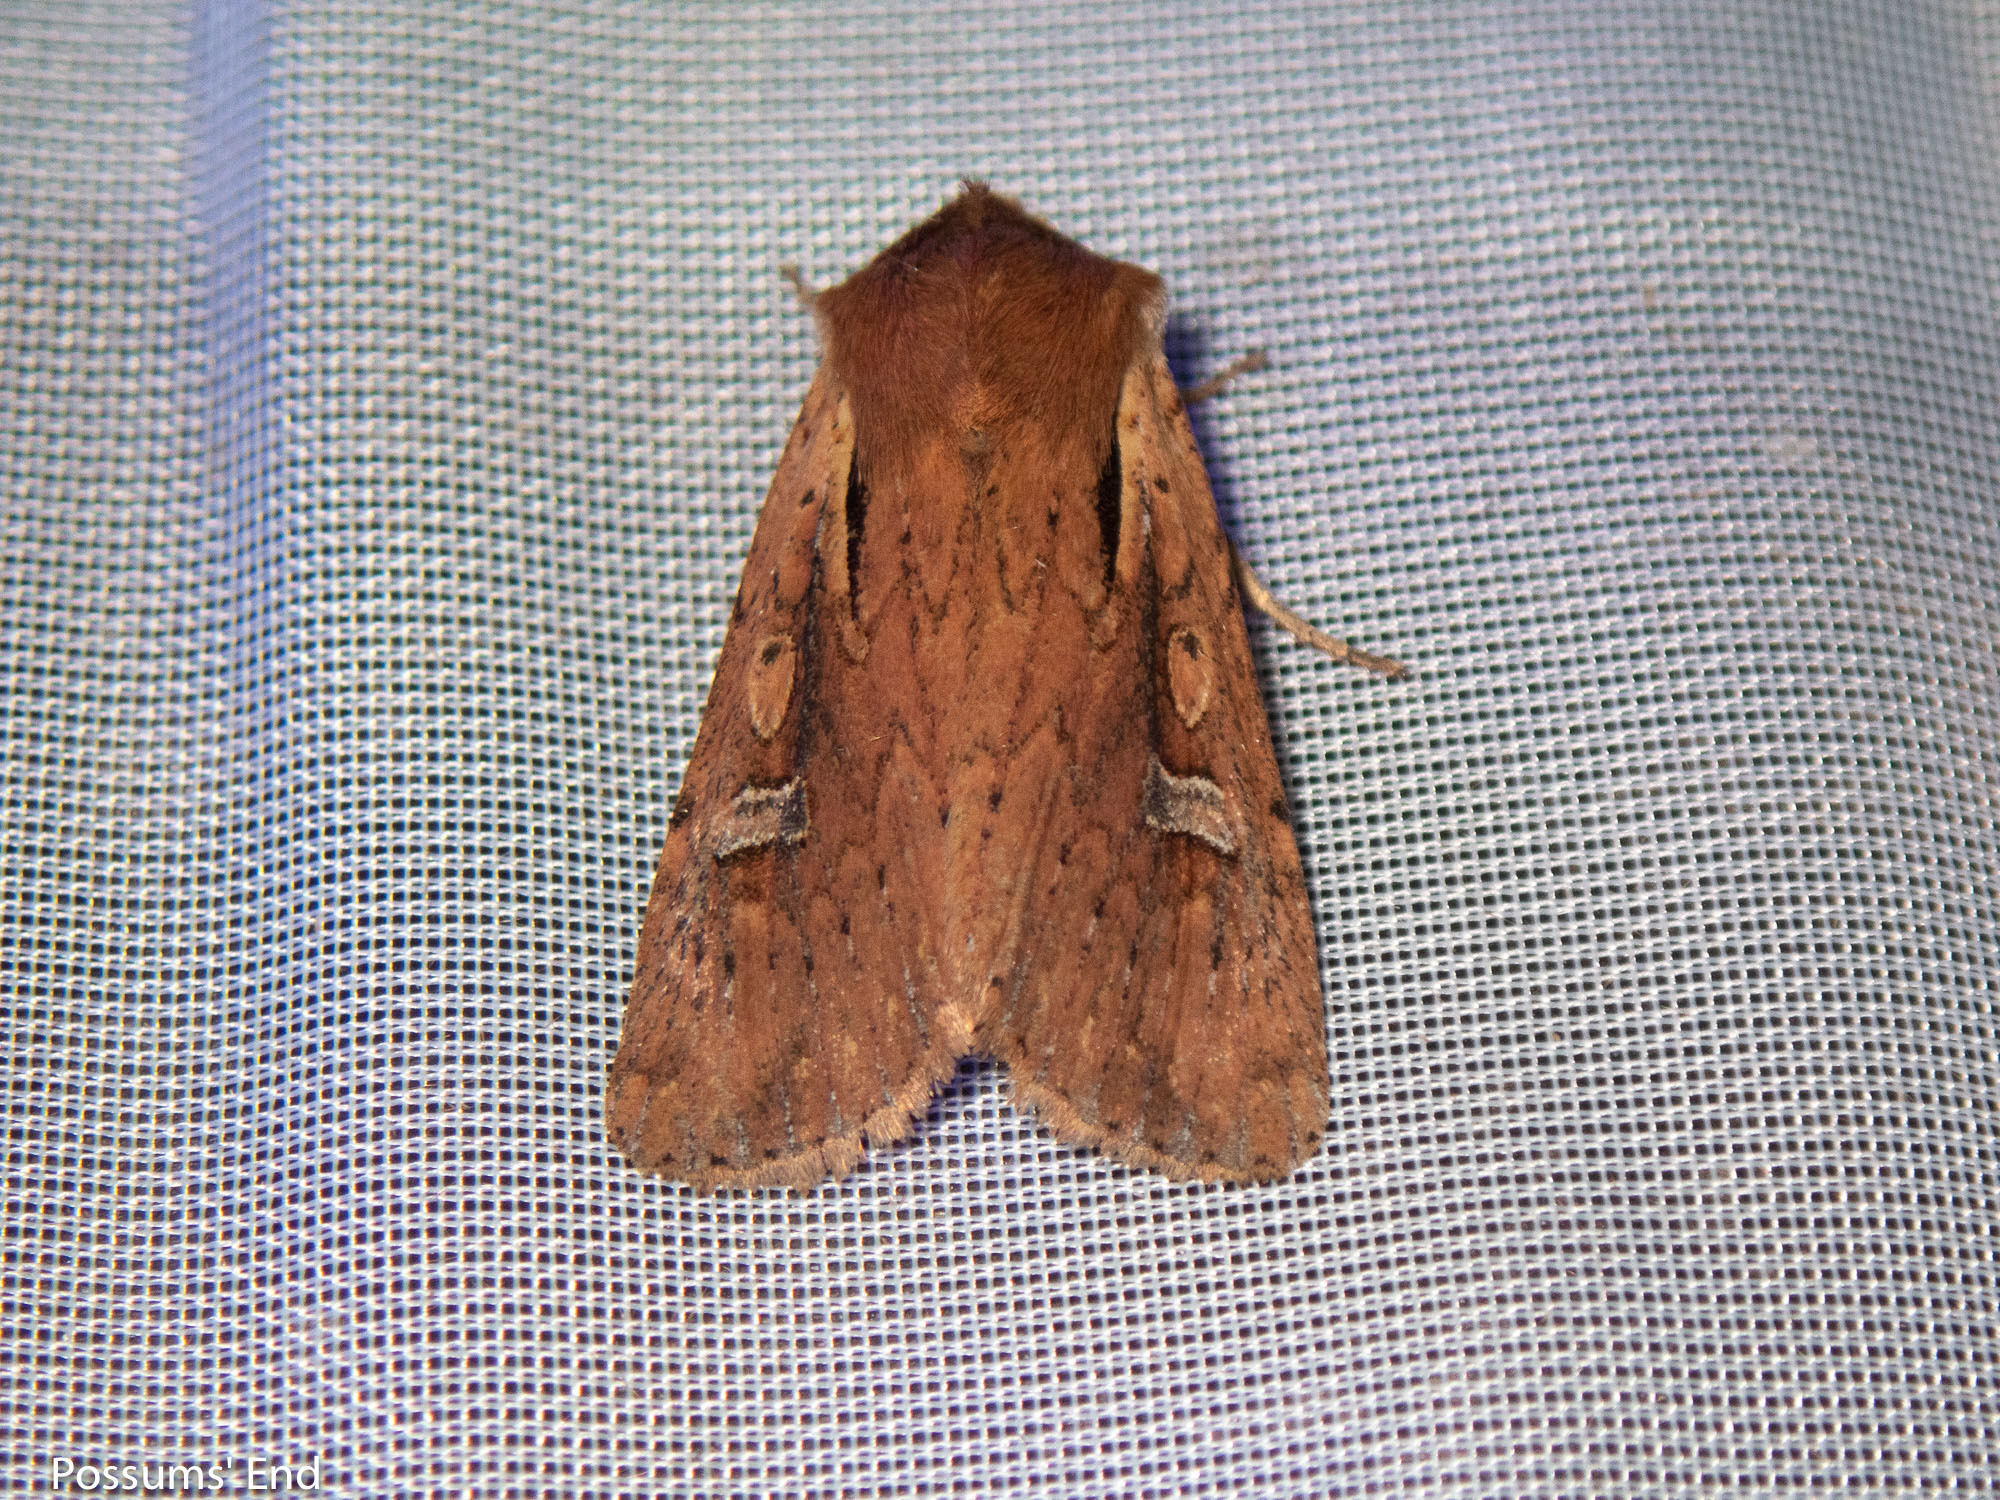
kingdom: Animalia
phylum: Arthropoda
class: Insecta
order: Lepidoptera
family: Noctuidae
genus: Ichneutica
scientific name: Ichneutica atristriga
